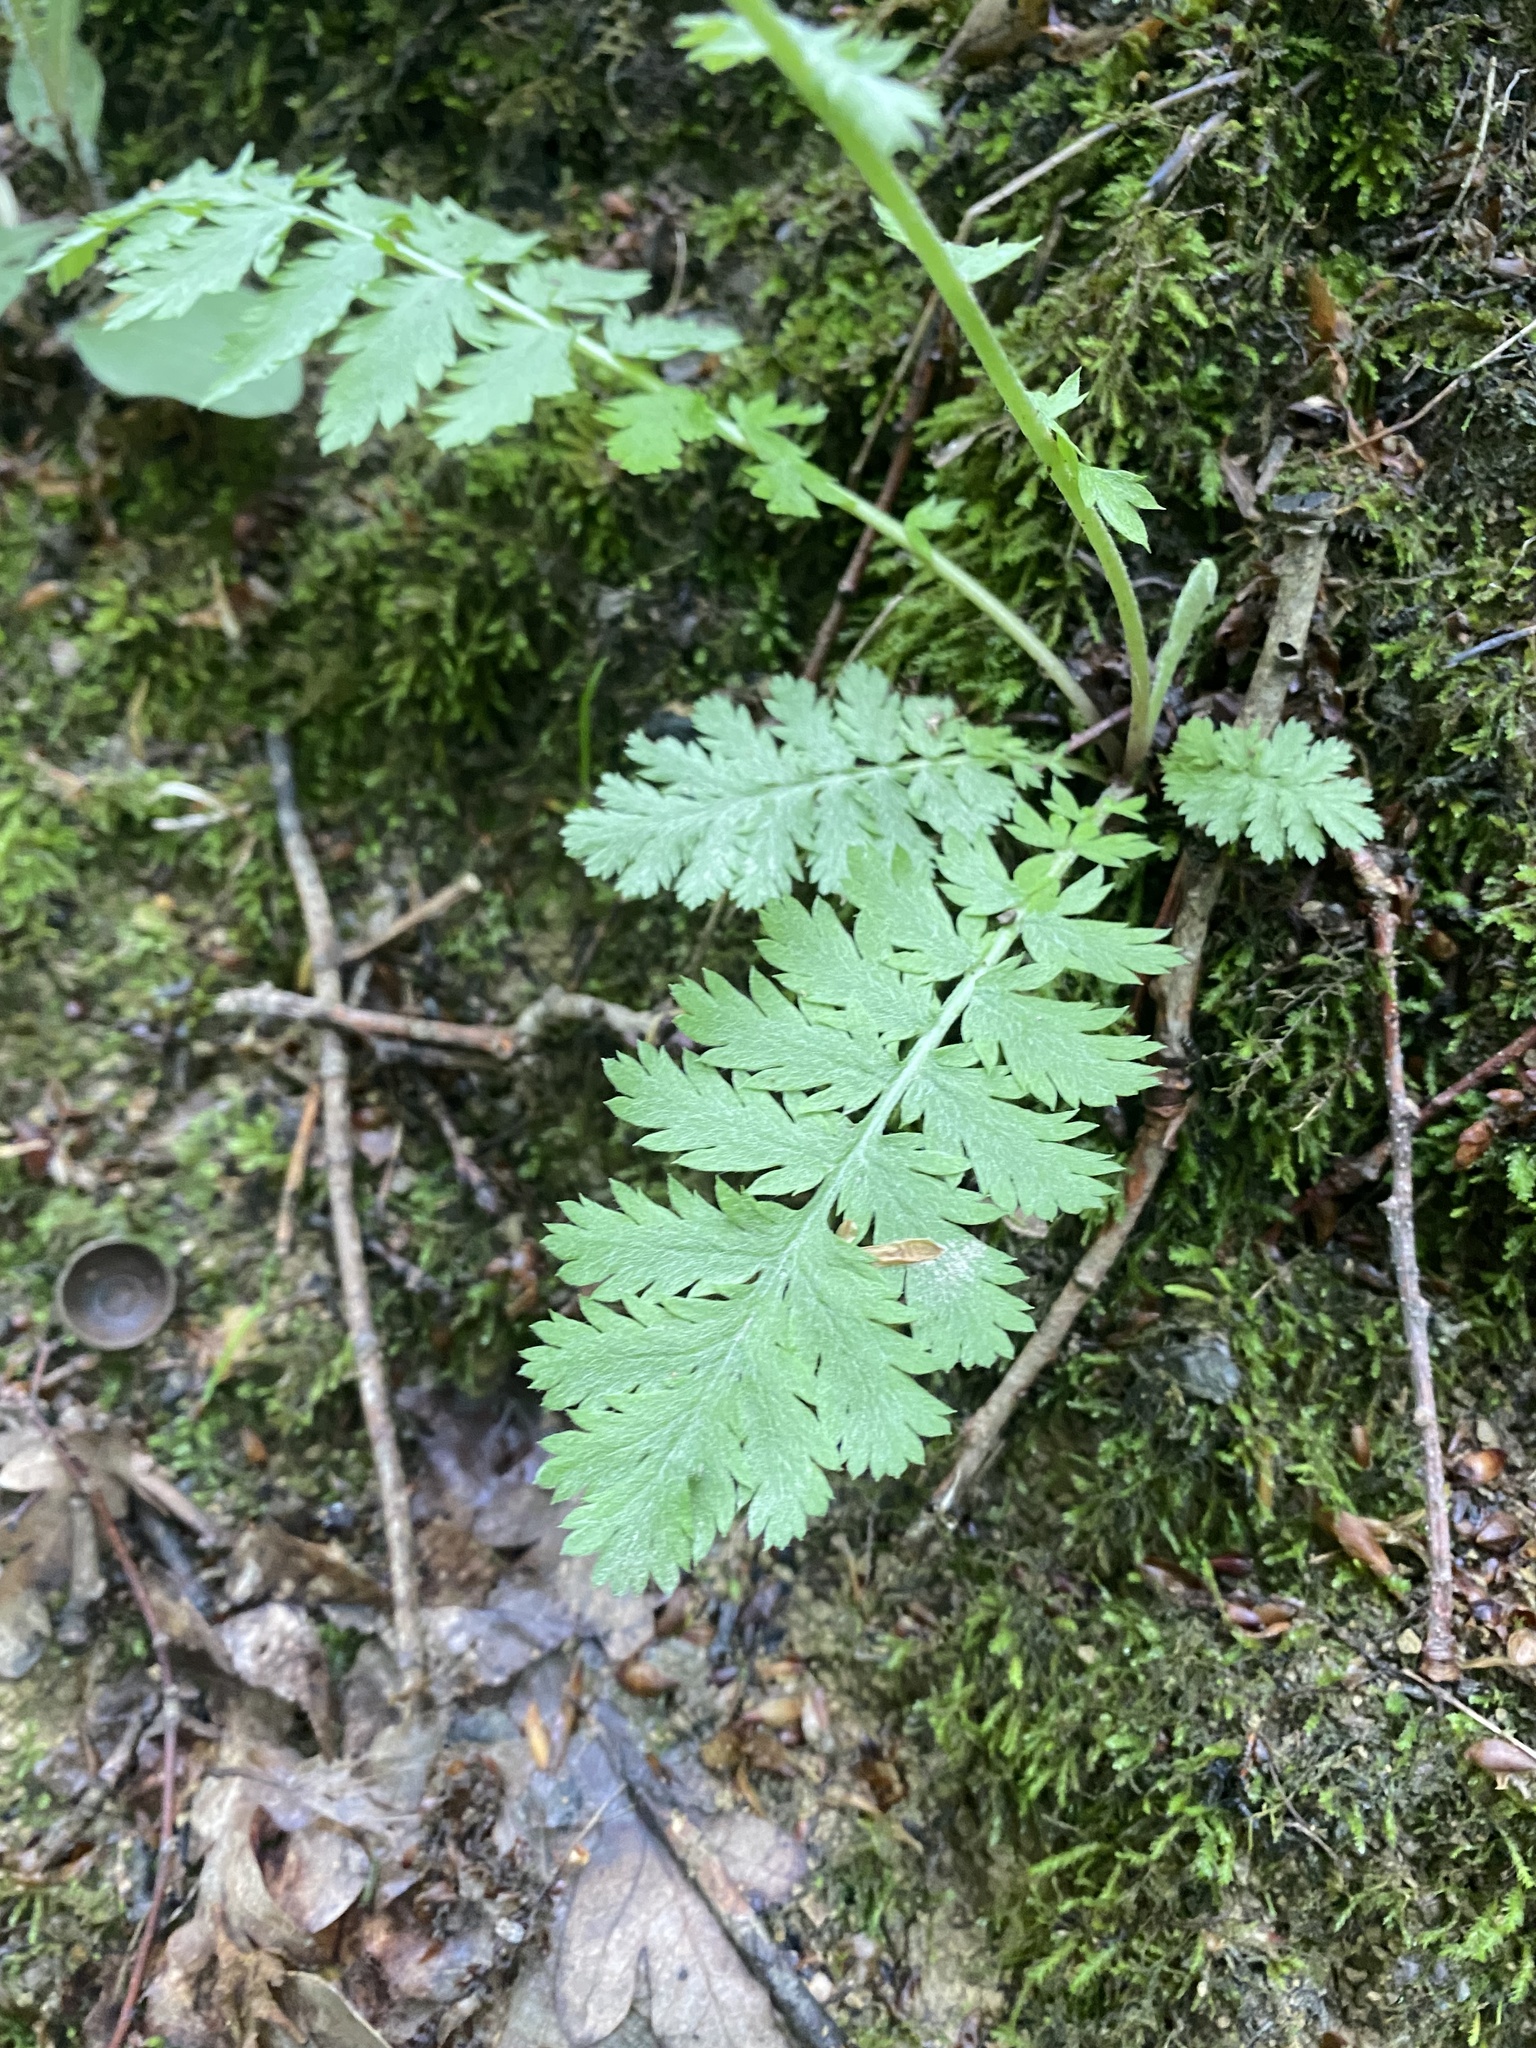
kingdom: Plantae
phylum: Tracheophyta
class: Magnoliopsida
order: Asterales
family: Asteraceae
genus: Tanacetum
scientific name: Tanacetum poteriifolium
